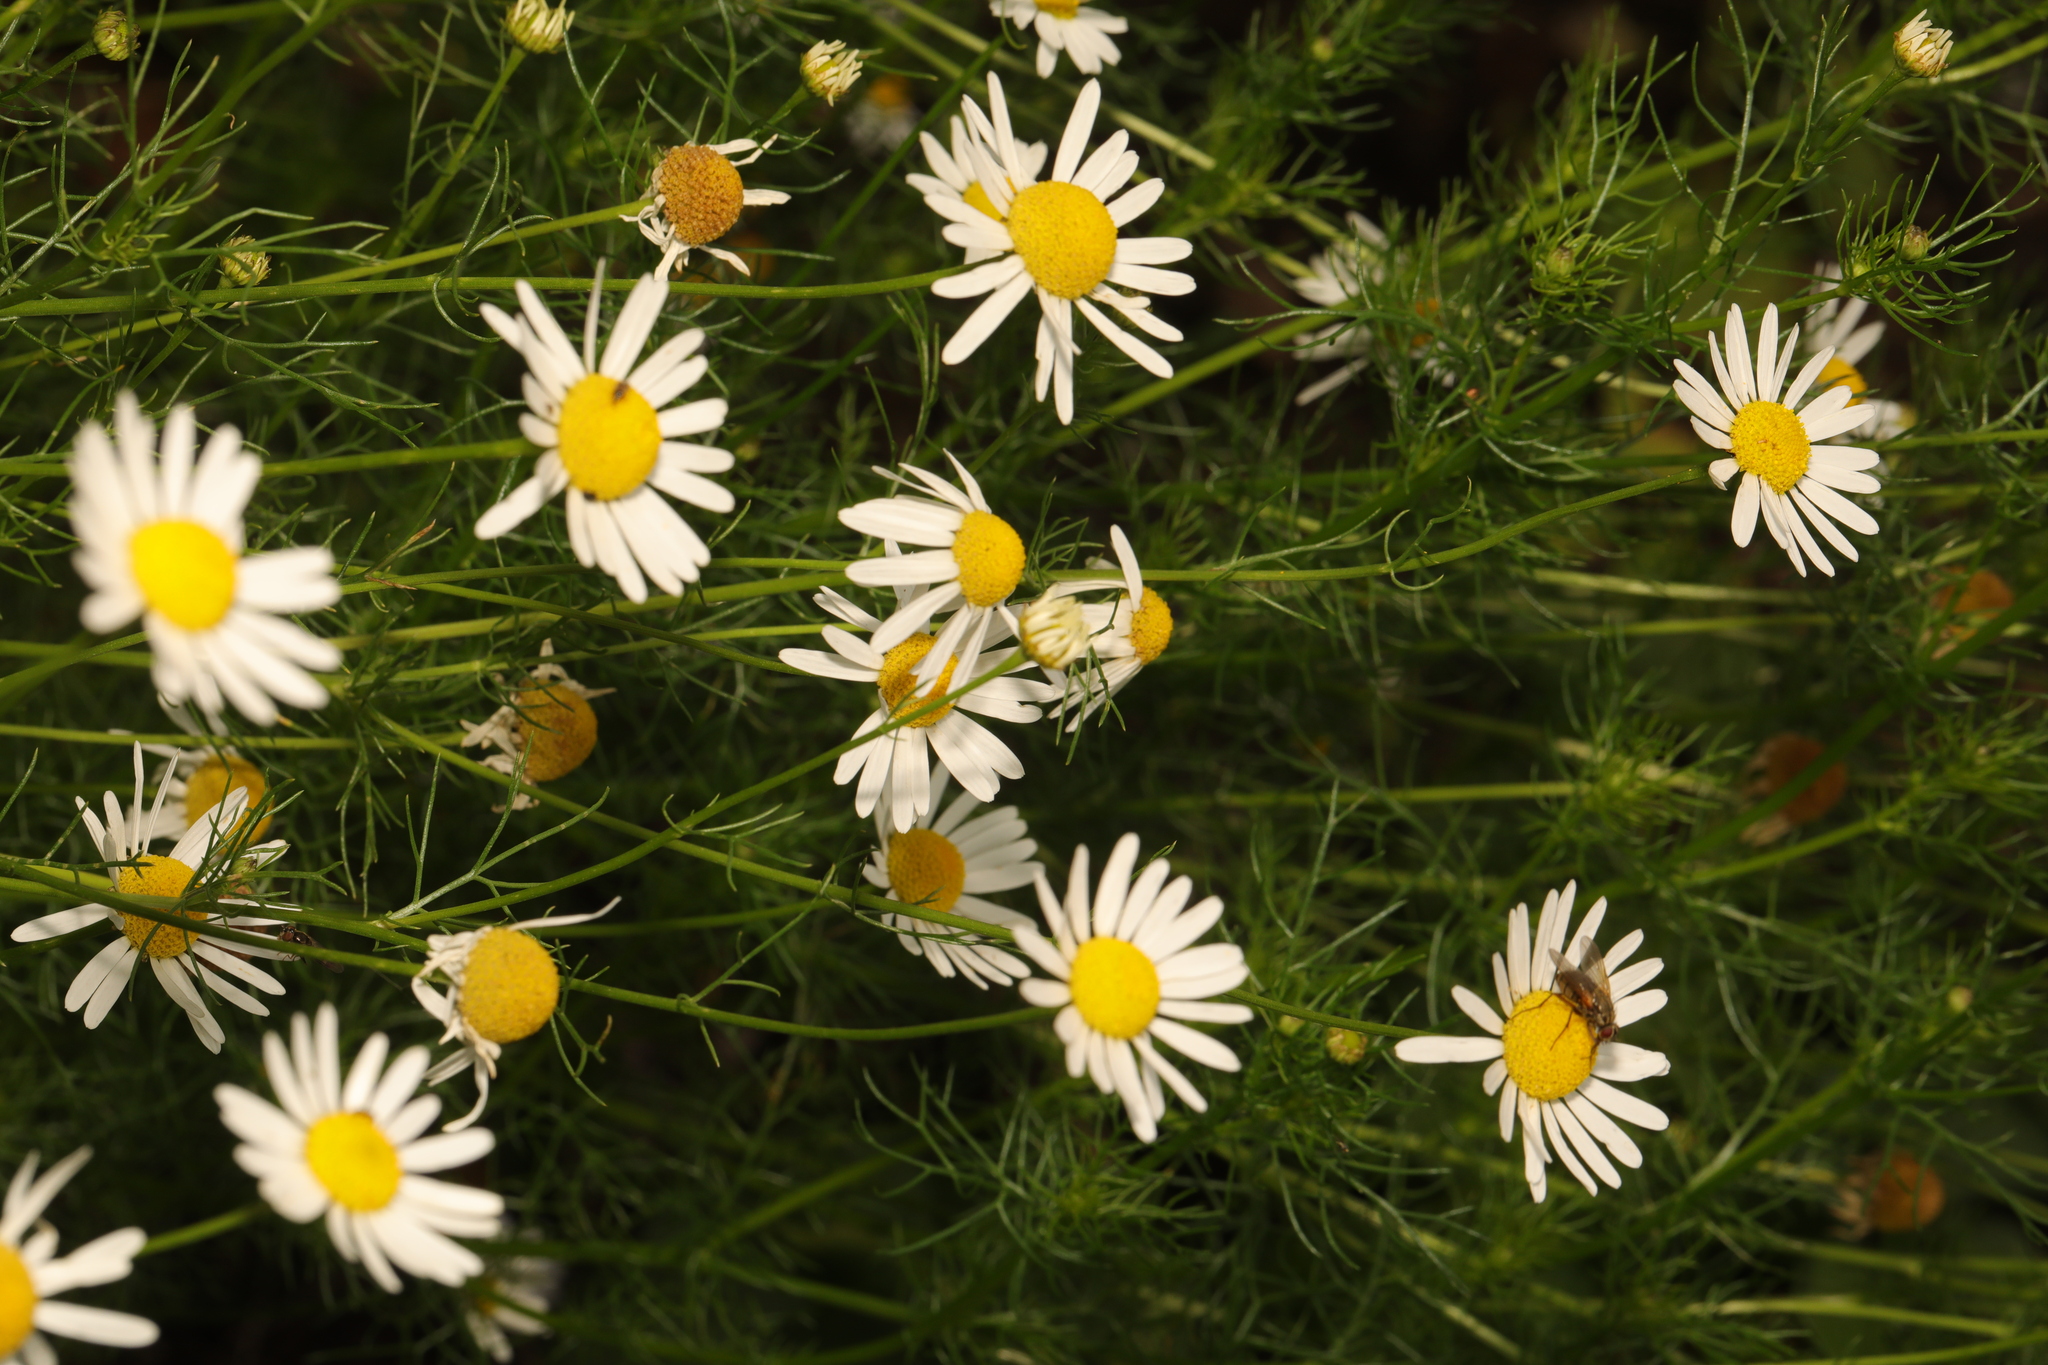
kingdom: Plantae
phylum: Tracheophyta
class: Magnoliopsida
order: Asterales
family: Asteraceae
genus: Tripleurospermum
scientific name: Tripleurospermum inodorum
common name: Scentless mayweed
